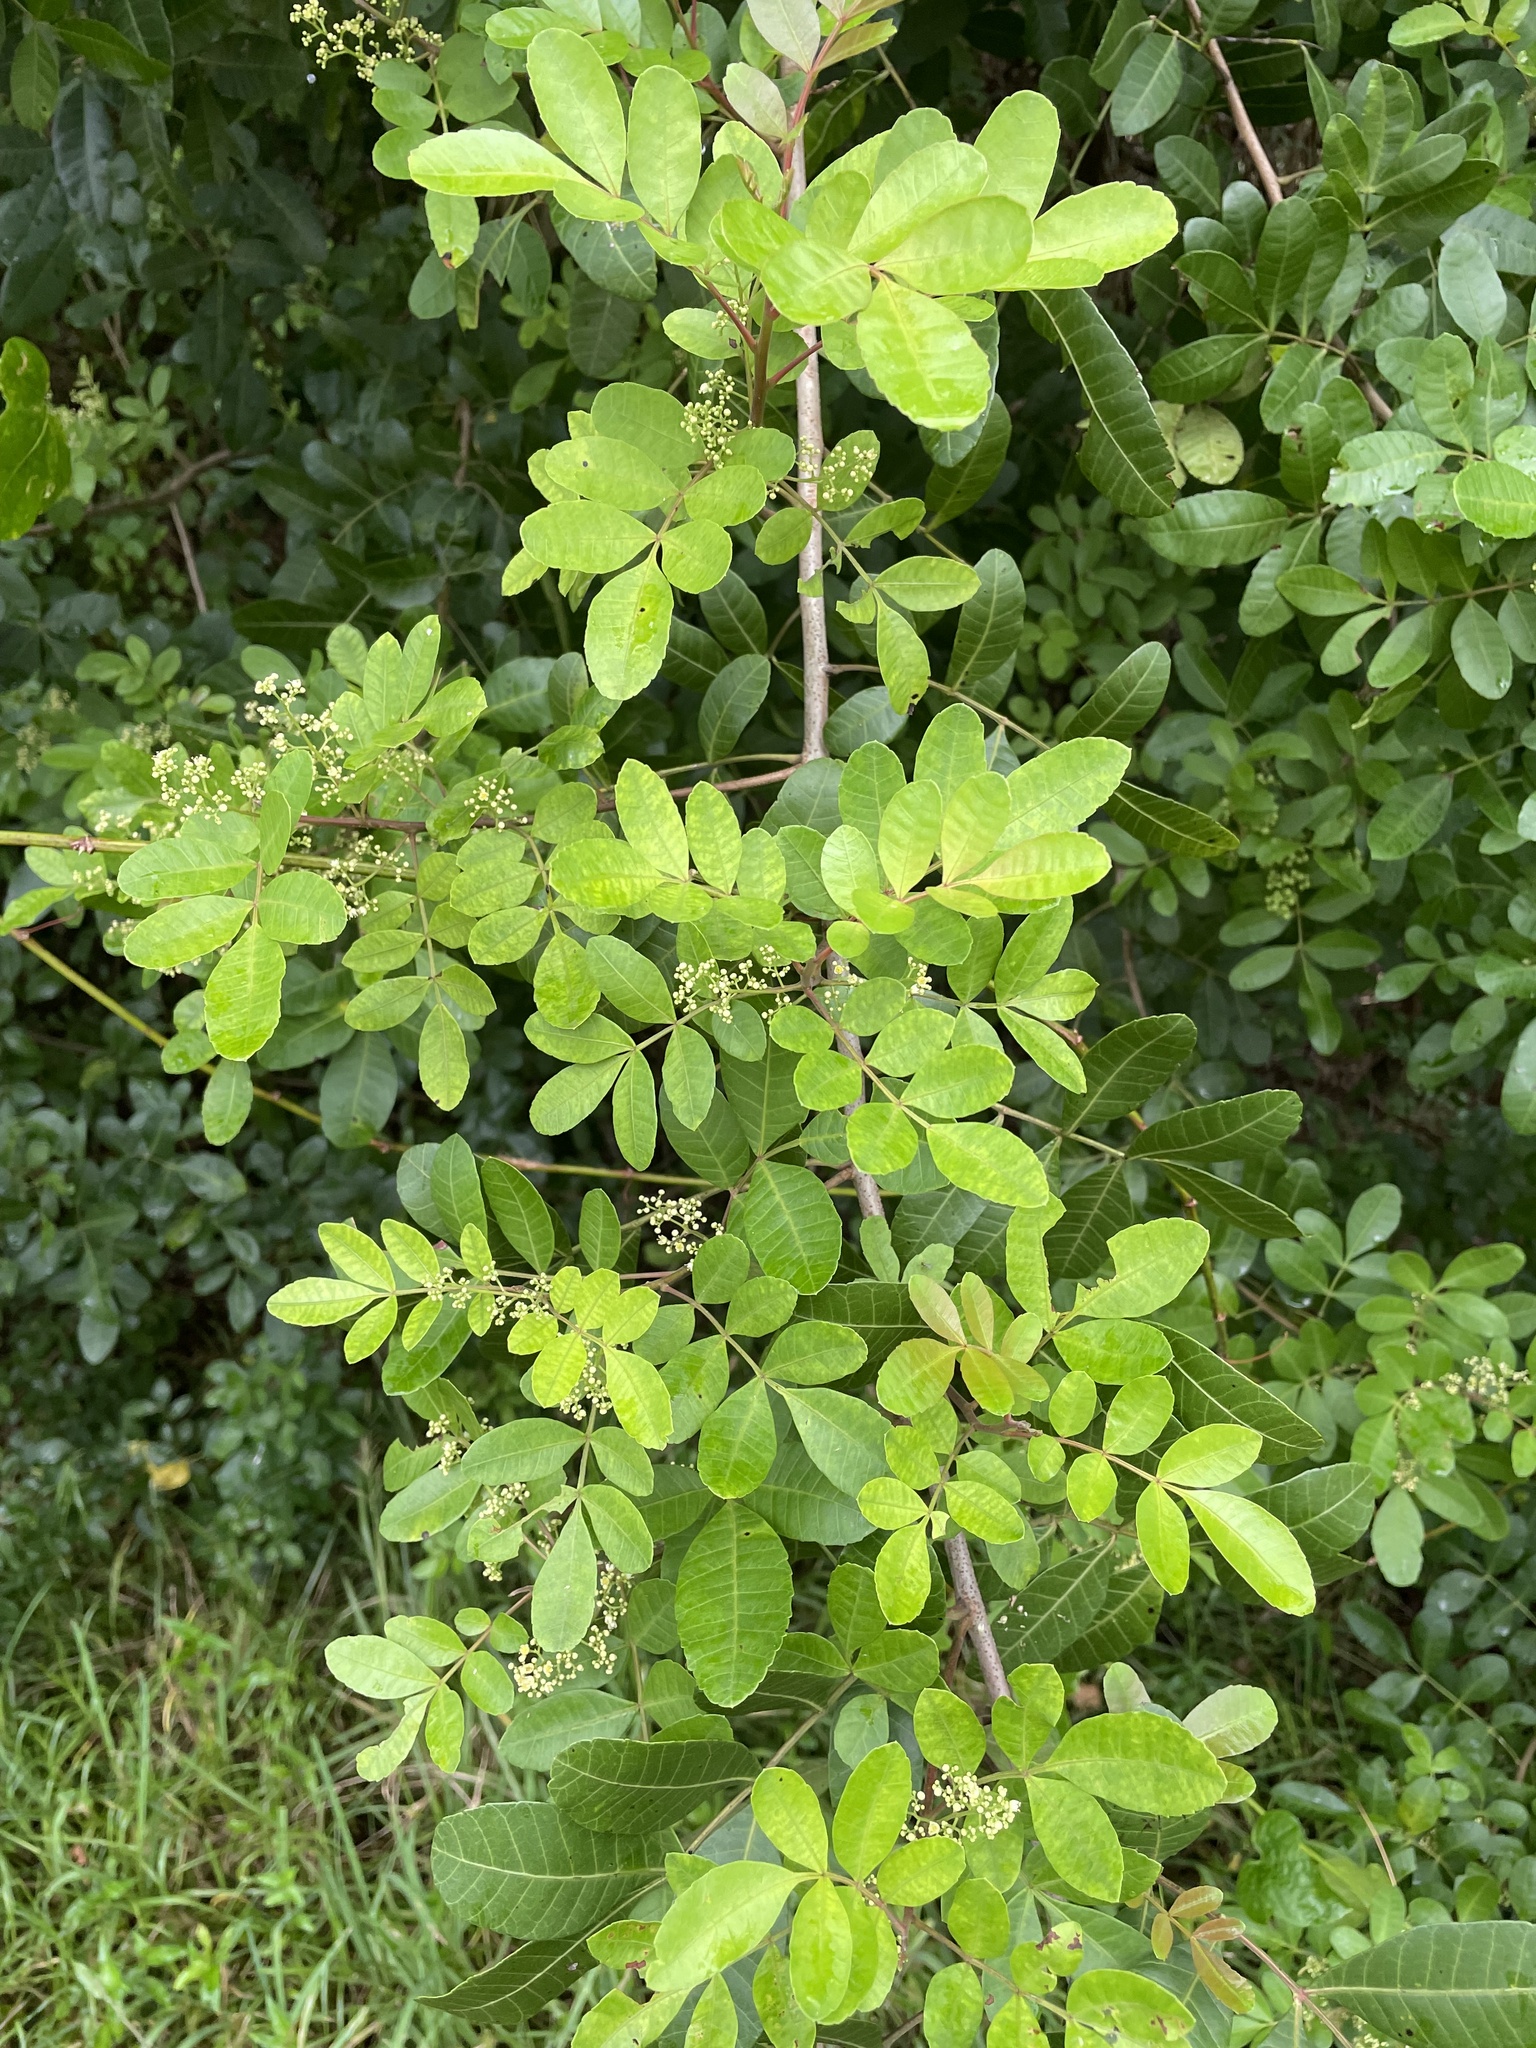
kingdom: Plantae
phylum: Tracheophyta
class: Magnoliopsida
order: Sapindales
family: Anacardiaceae
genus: Schinus
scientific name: Schinus terebinthifolia
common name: Brazilian peppertree
